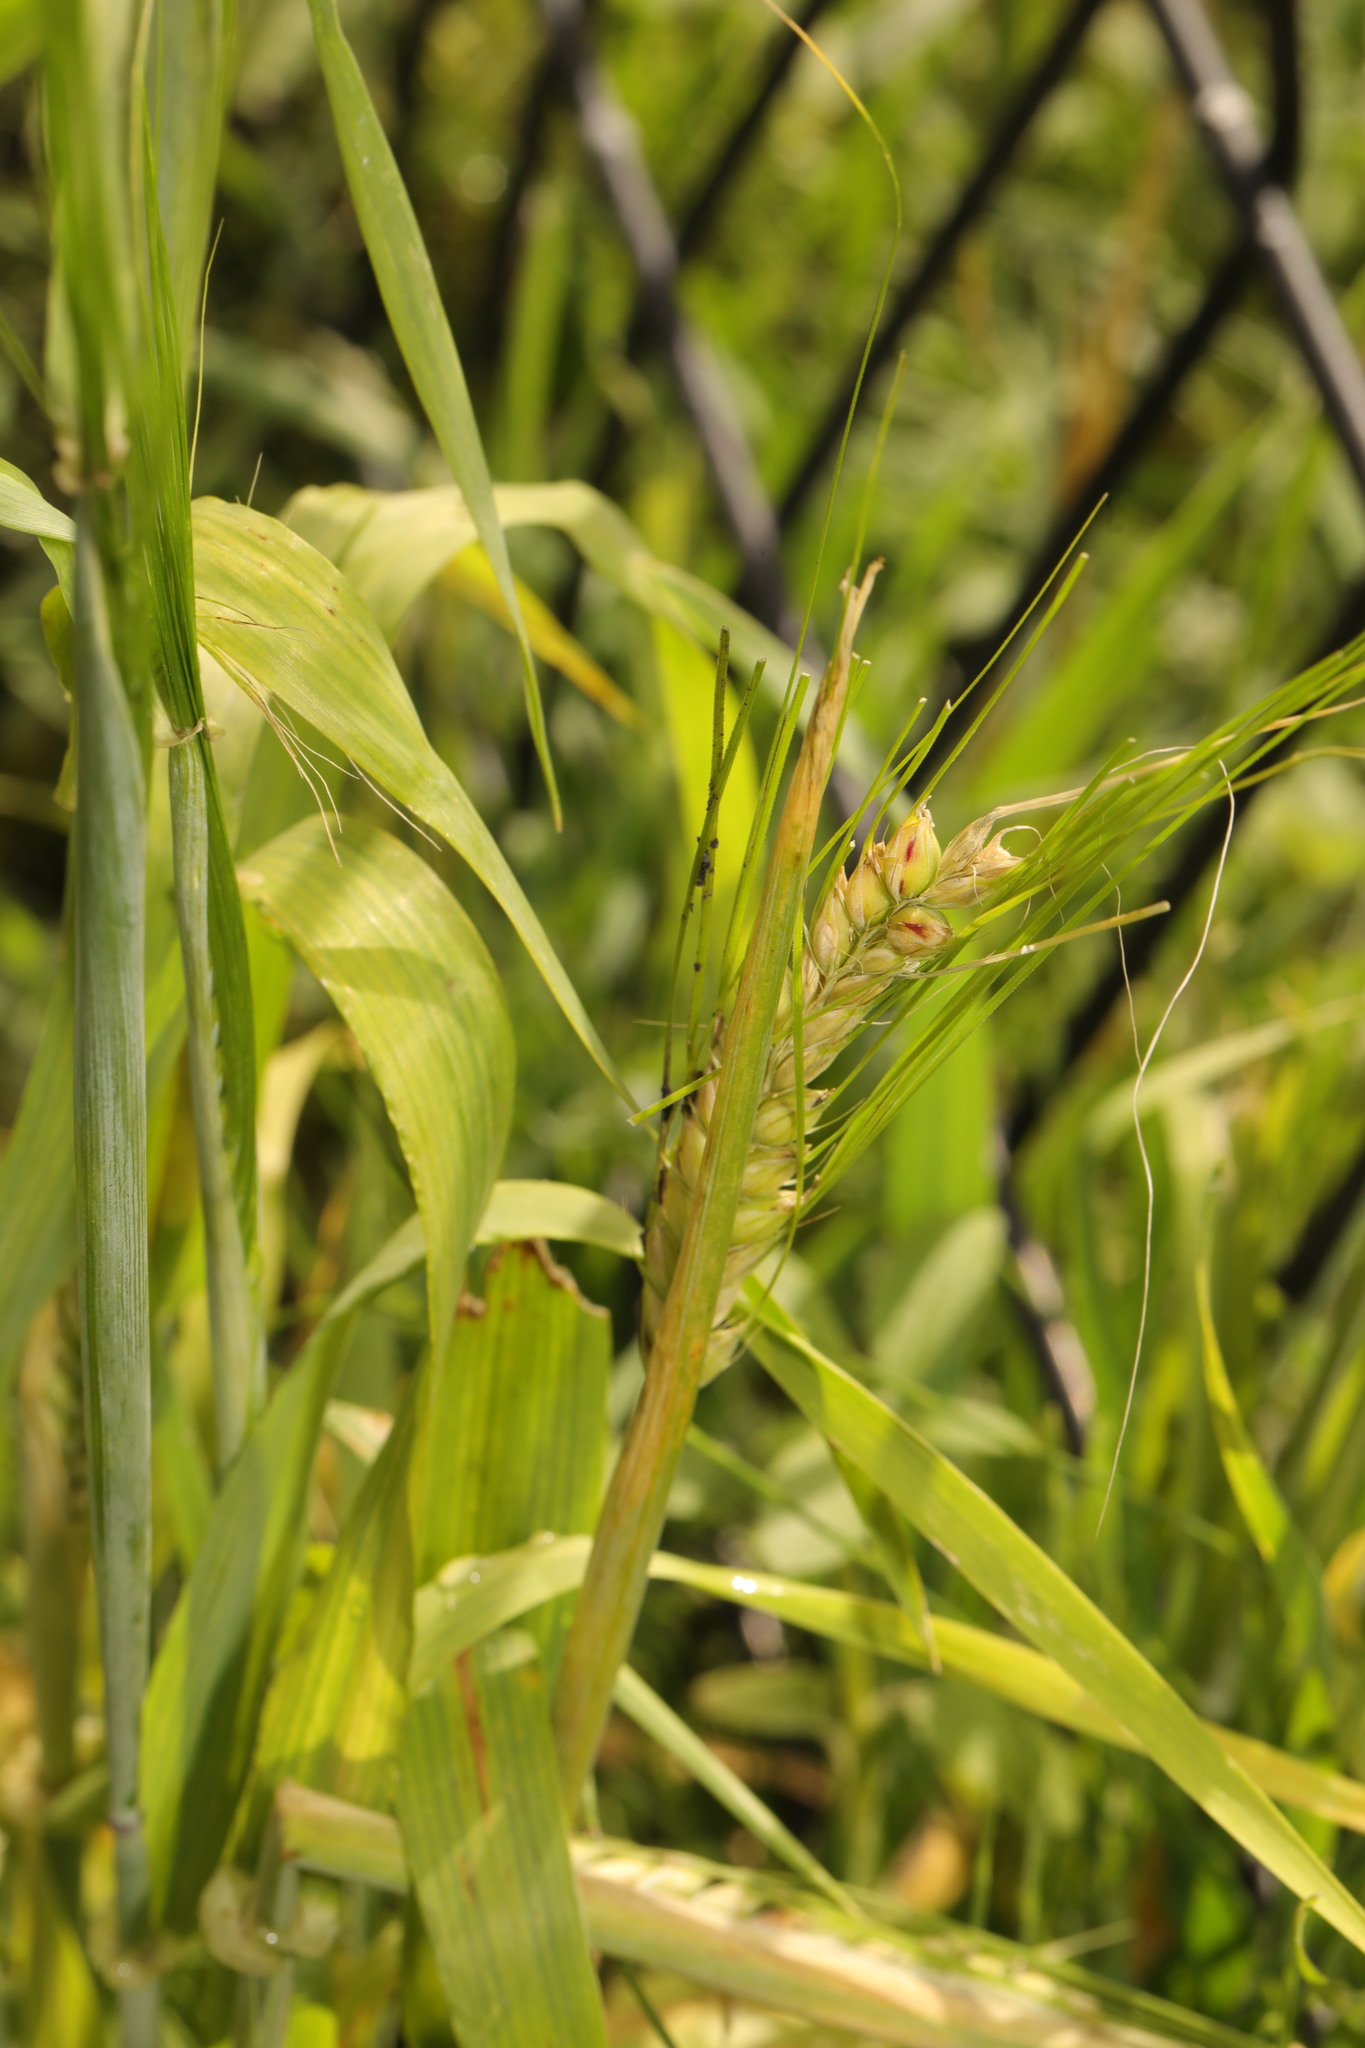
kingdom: Plantae
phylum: Tracheophyta
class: Liliopsida
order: Poales
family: Poaceae
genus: Triticum
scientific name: Triticum aestivum
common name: Common wheat
